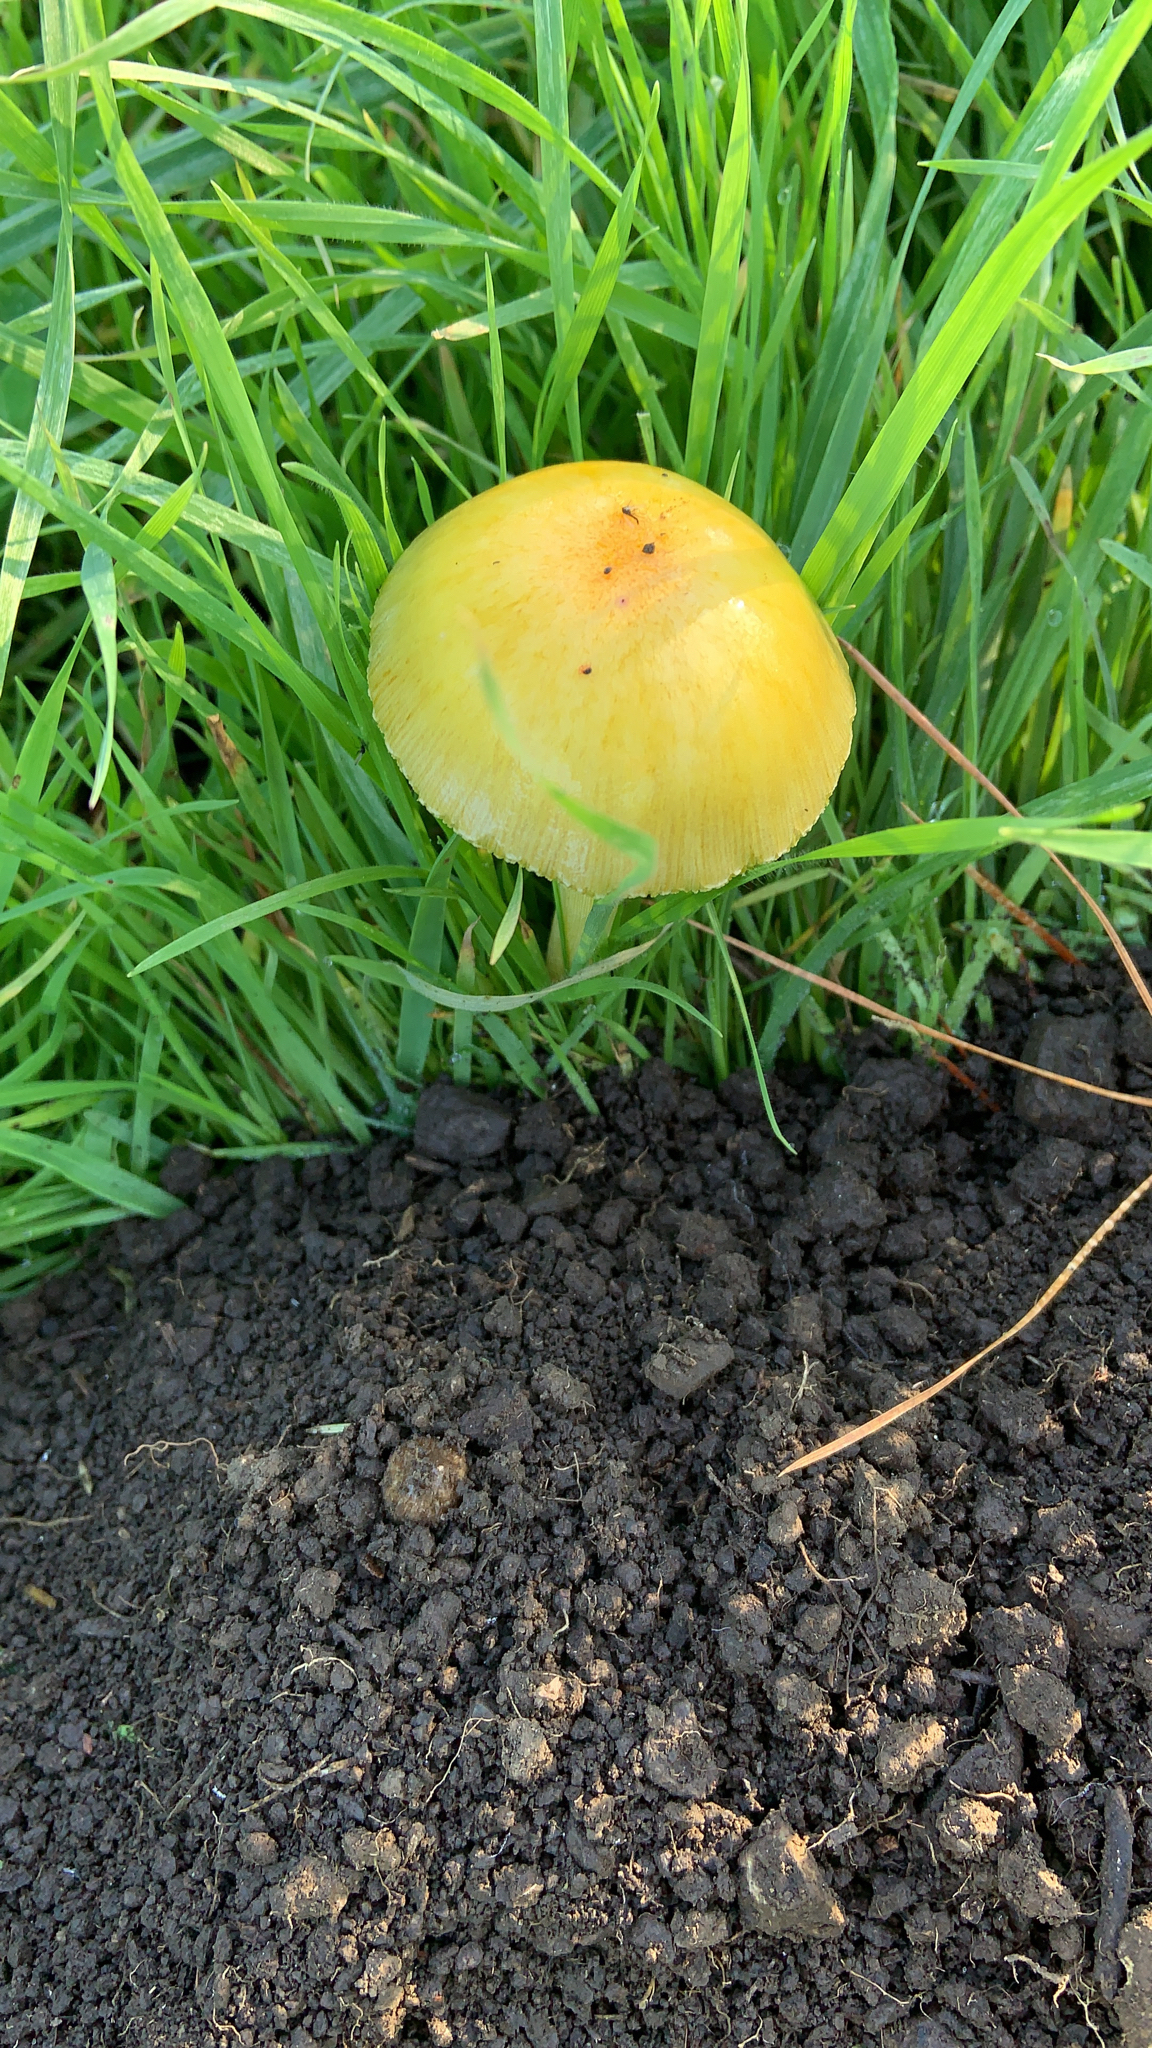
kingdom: Fungi
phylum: Basidiomycota
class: Agaricomycetes
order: Agaricales
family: Bolbitiaceae
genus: Bolbitius
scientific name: Bolbitius titubans
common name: Yellow fieldcap
